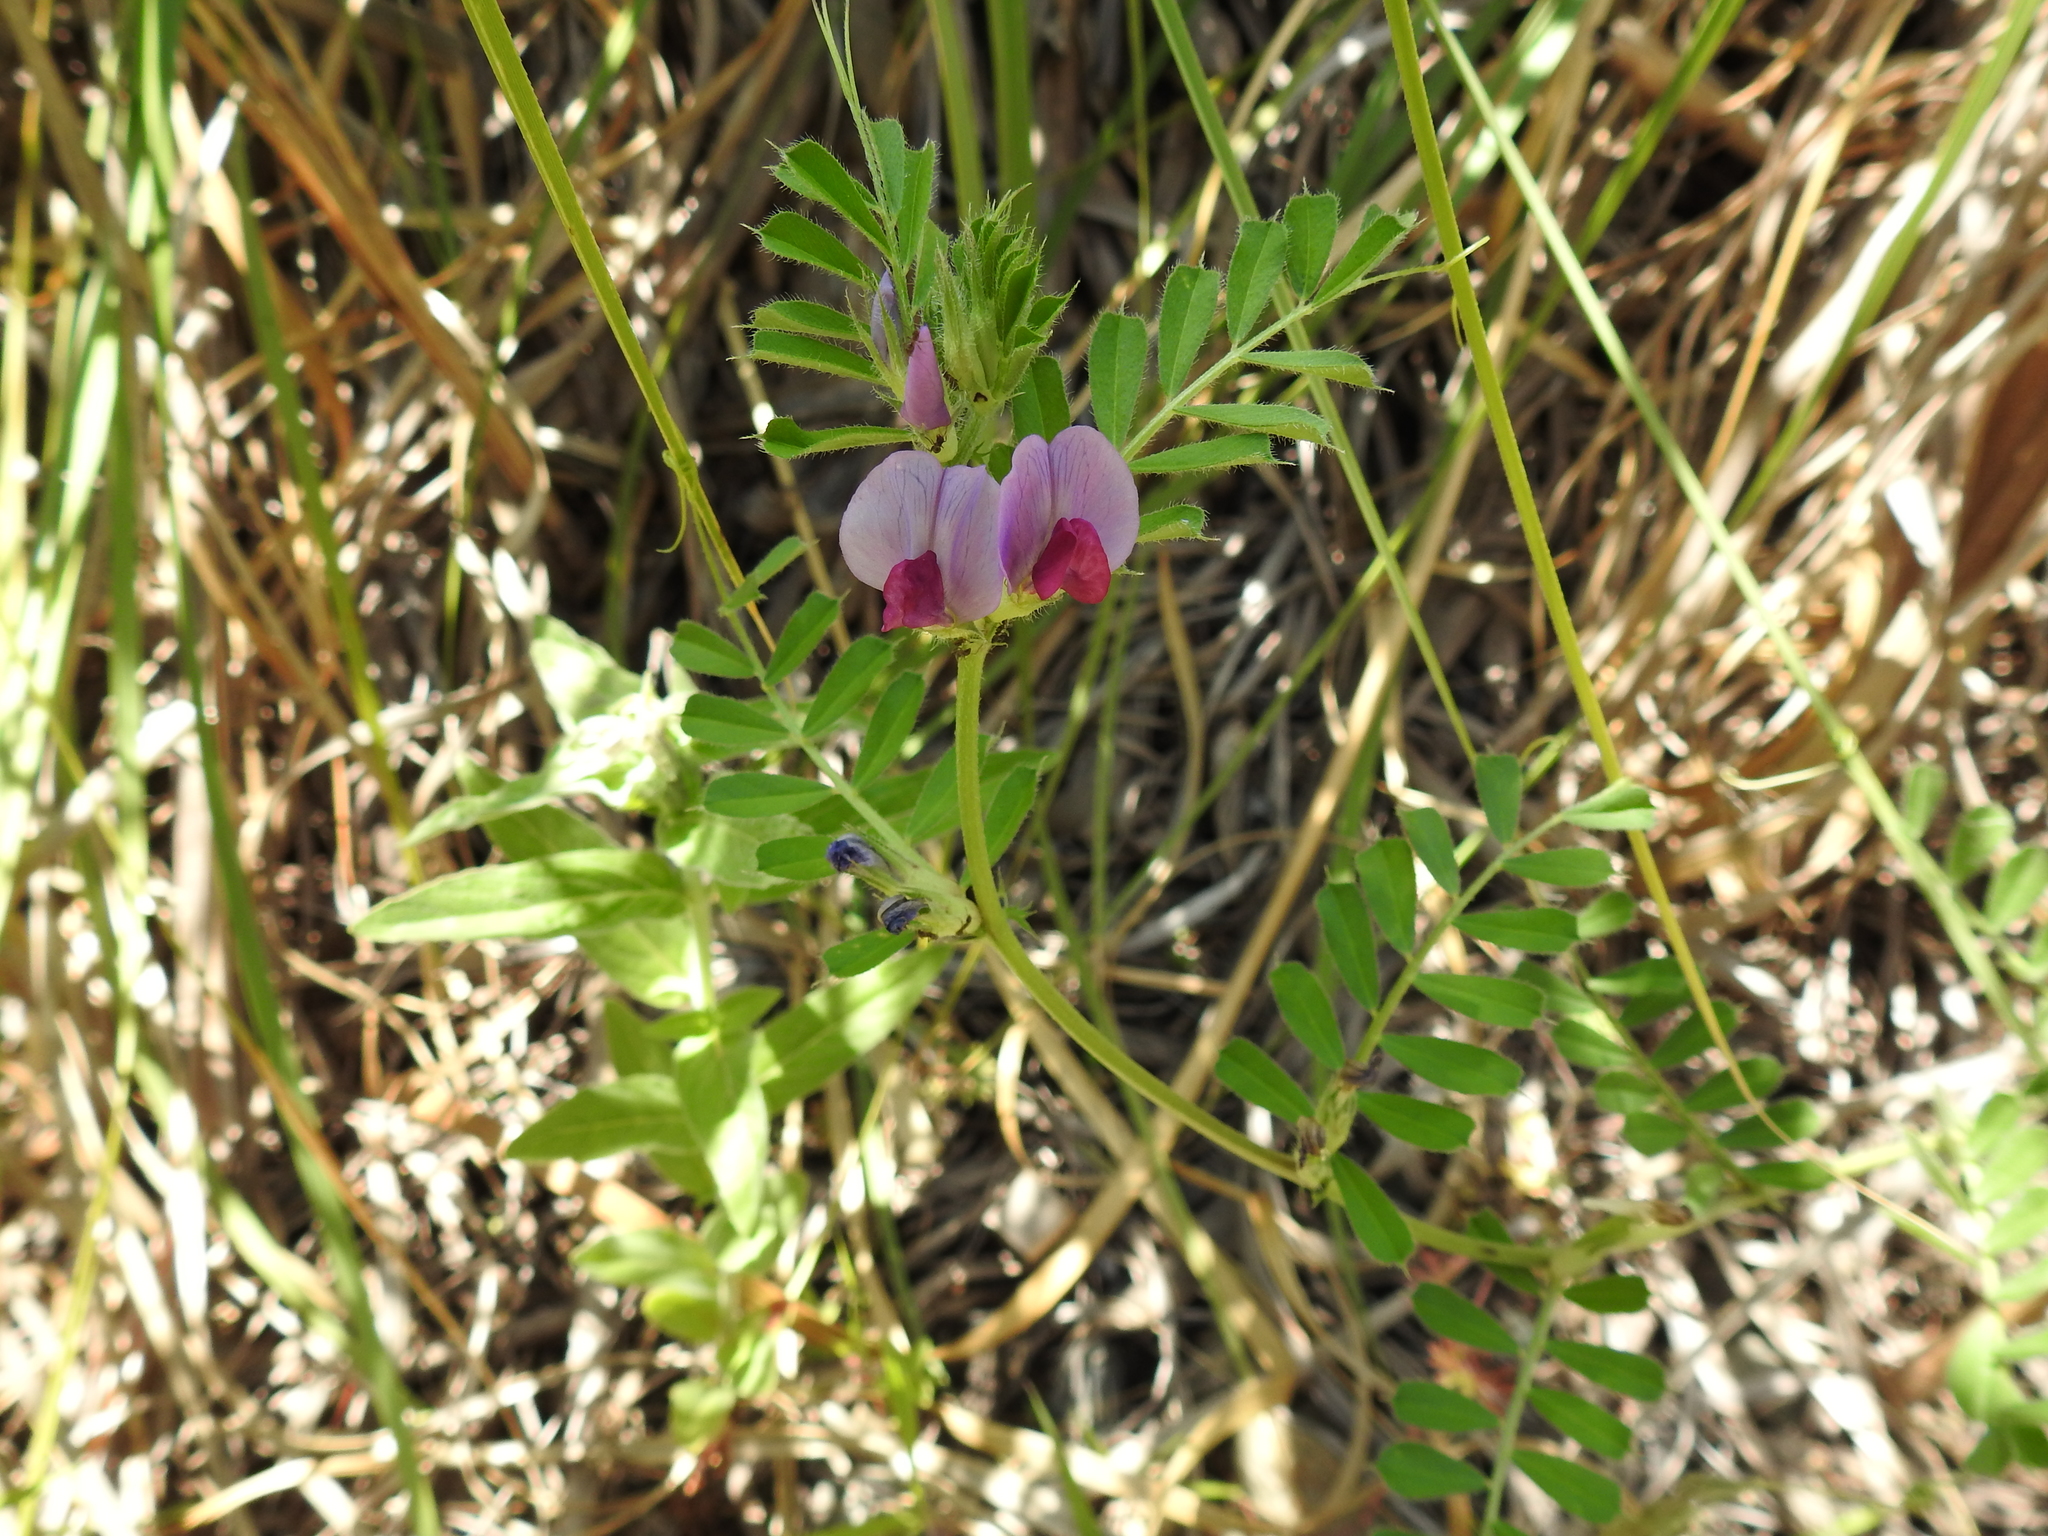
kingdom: Plantae
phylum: Tracheophyta
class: Magnoliopsida
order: Fabales
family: Fabaceae
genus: Vicia
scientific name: Vicia sativa
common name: Garden vetch
